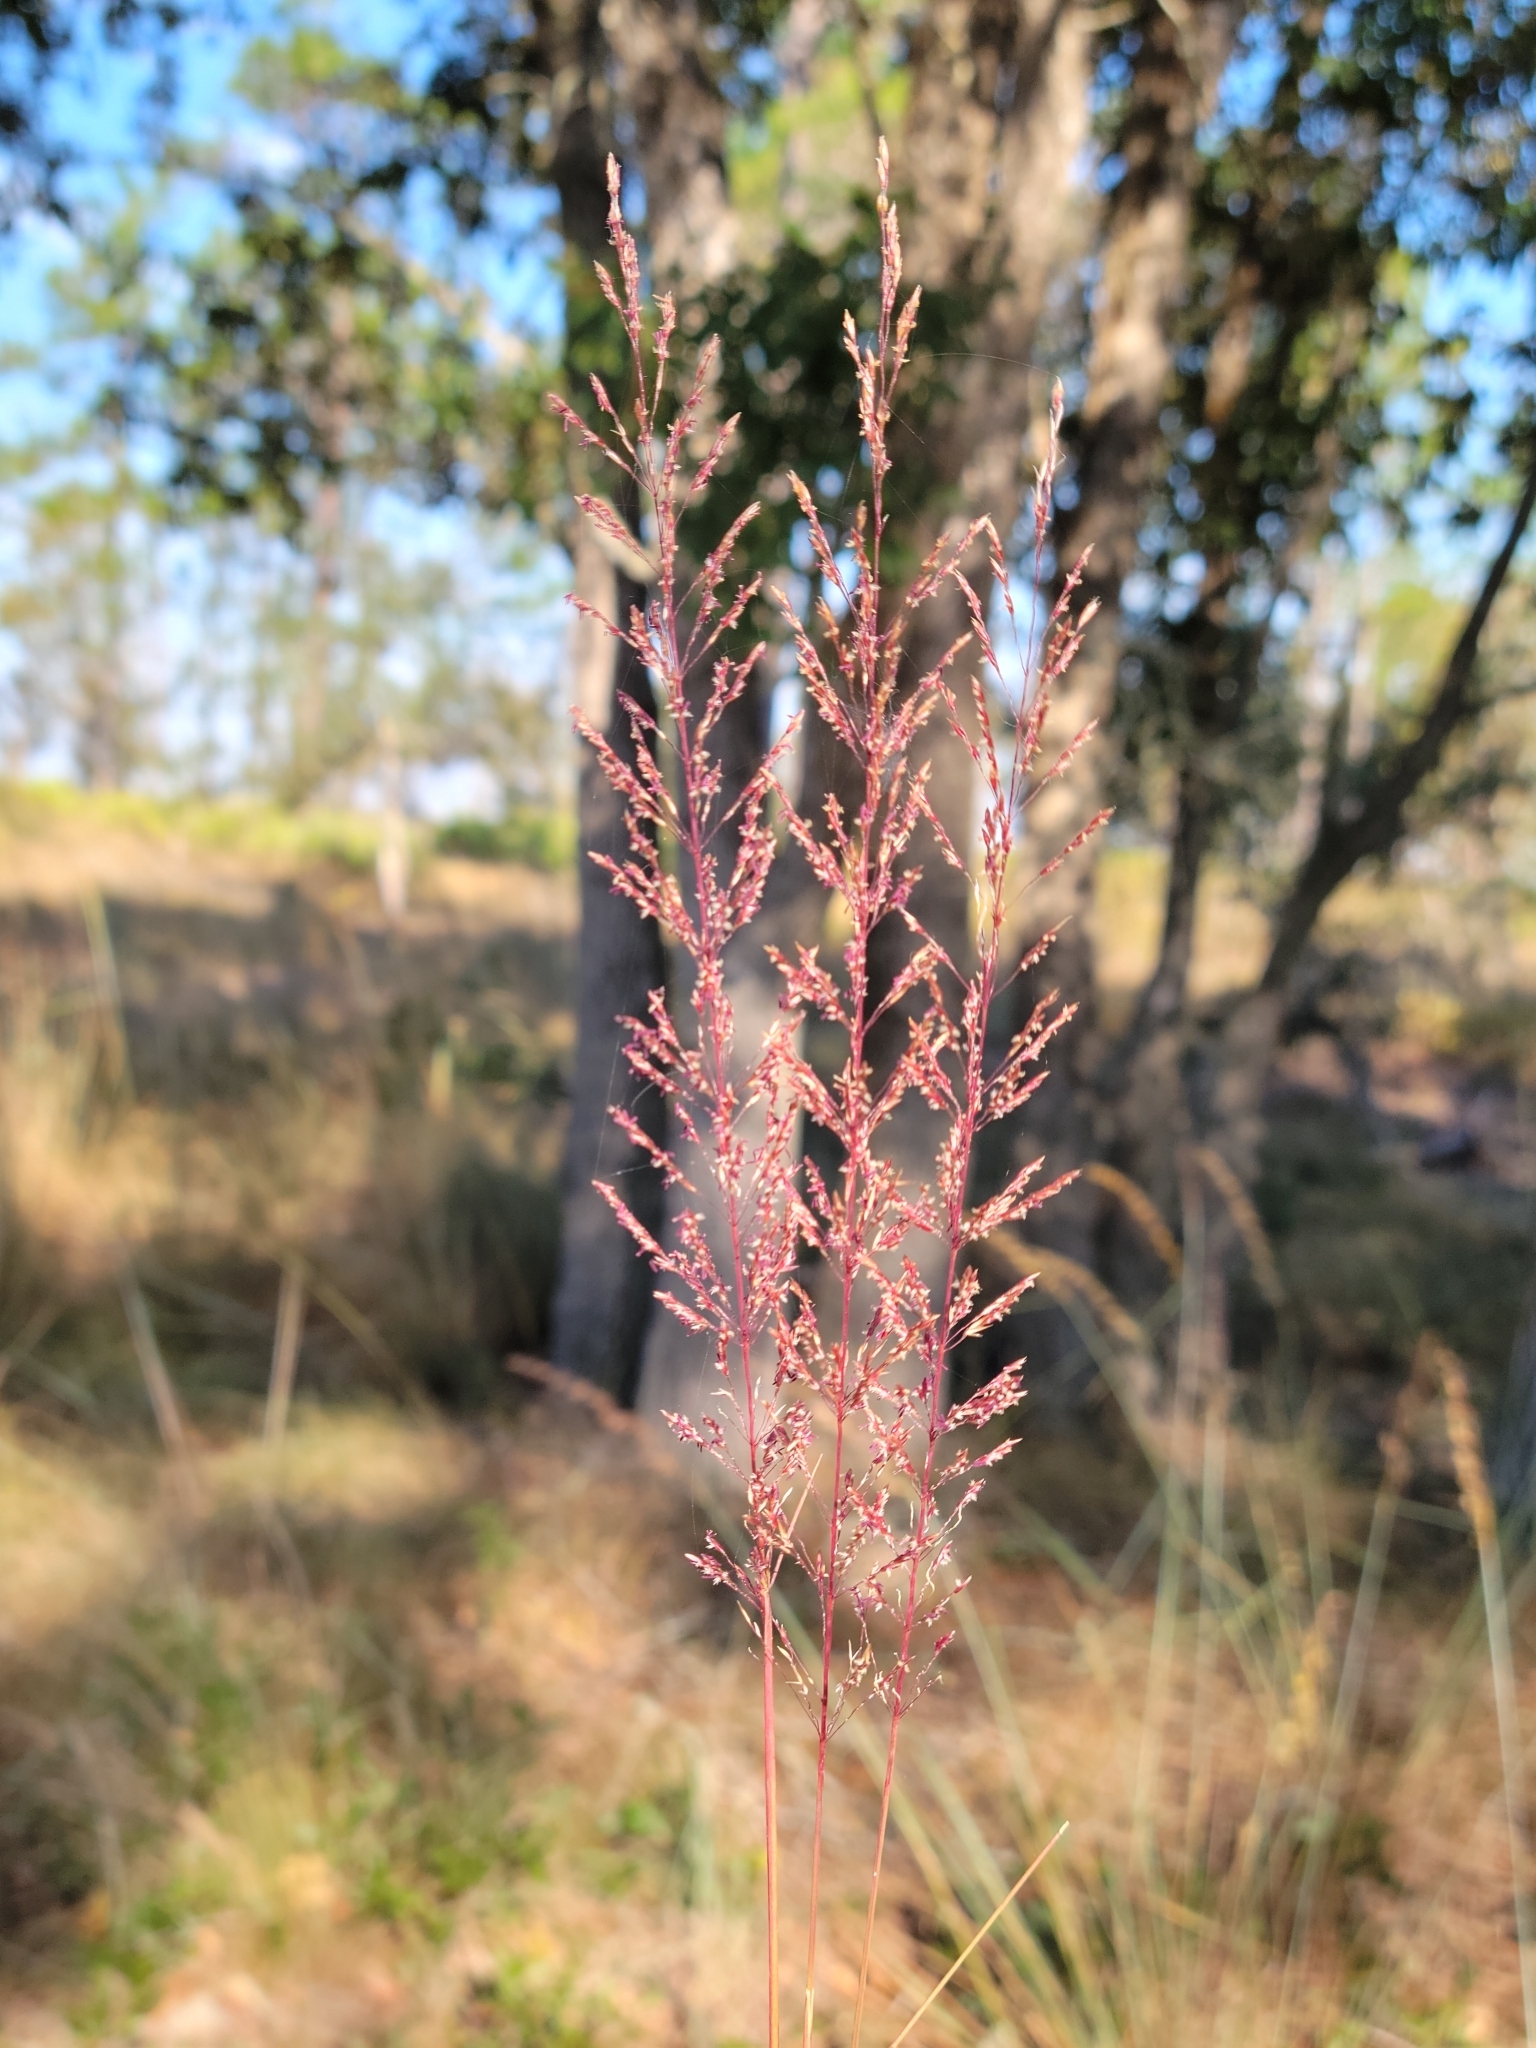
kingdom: Plantae
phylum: Tracheophyta
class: Liliopsida
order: Poales
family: Poaceae
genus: Sporobolus
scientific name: Sporobolus junceus
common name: Lizard grass
